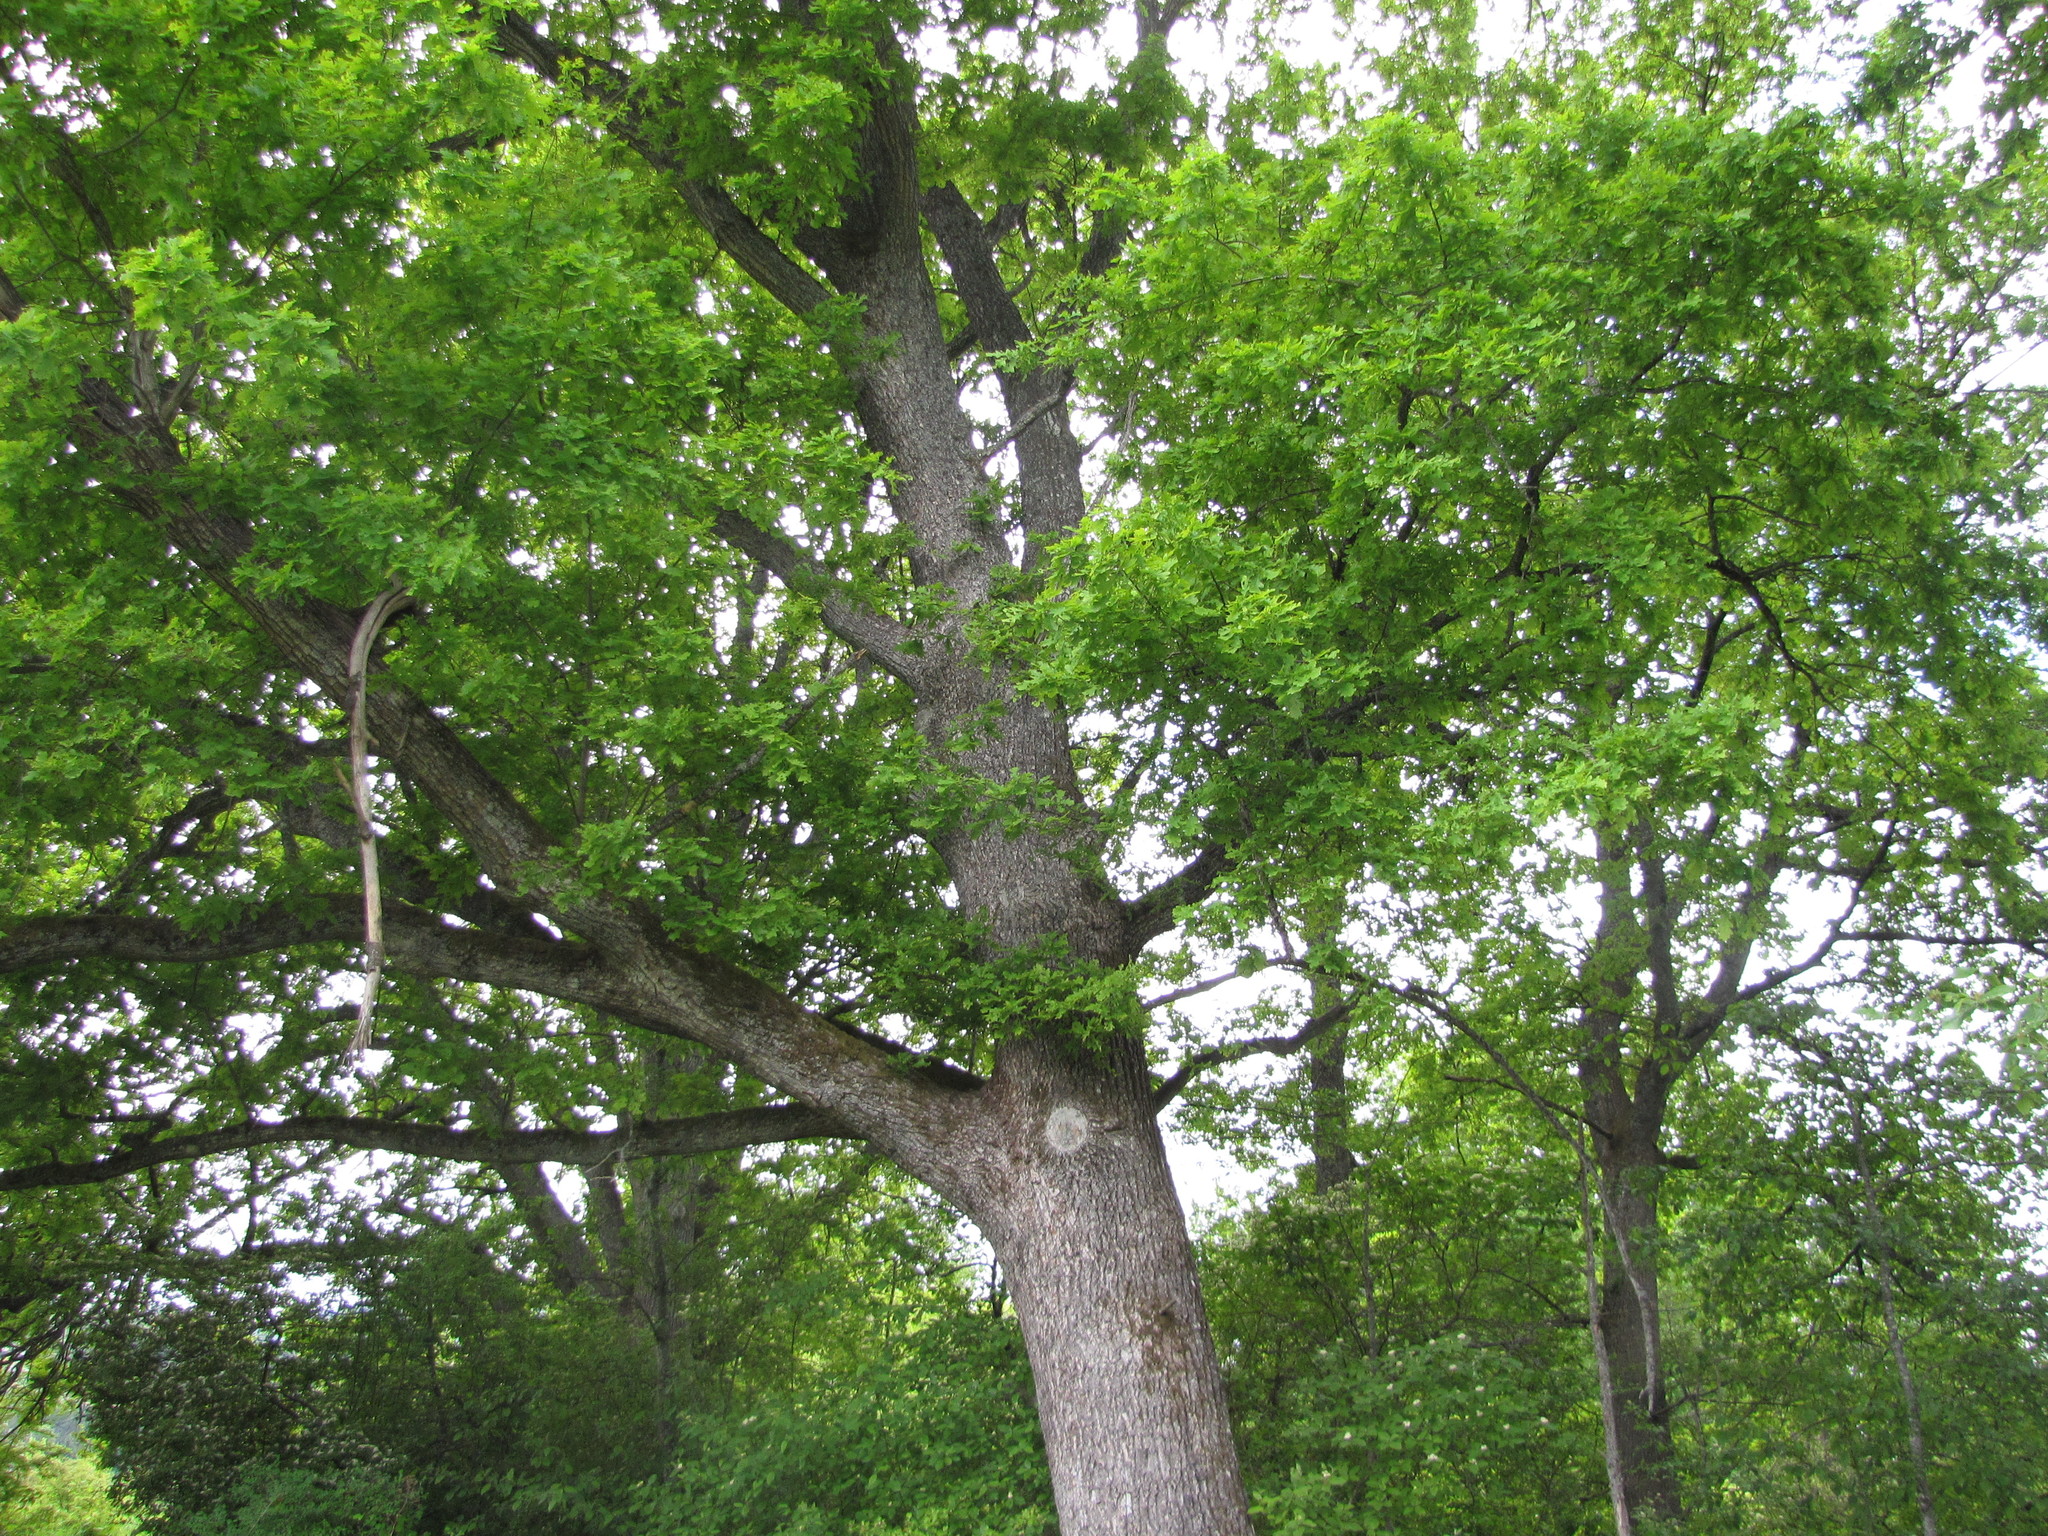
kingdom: Plantae
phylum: Tracheophyta
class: Magnoliopsida
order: Fagales
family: Fagaceae
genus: Quercus
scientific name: Quercus robur
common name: Pedunculate oak
